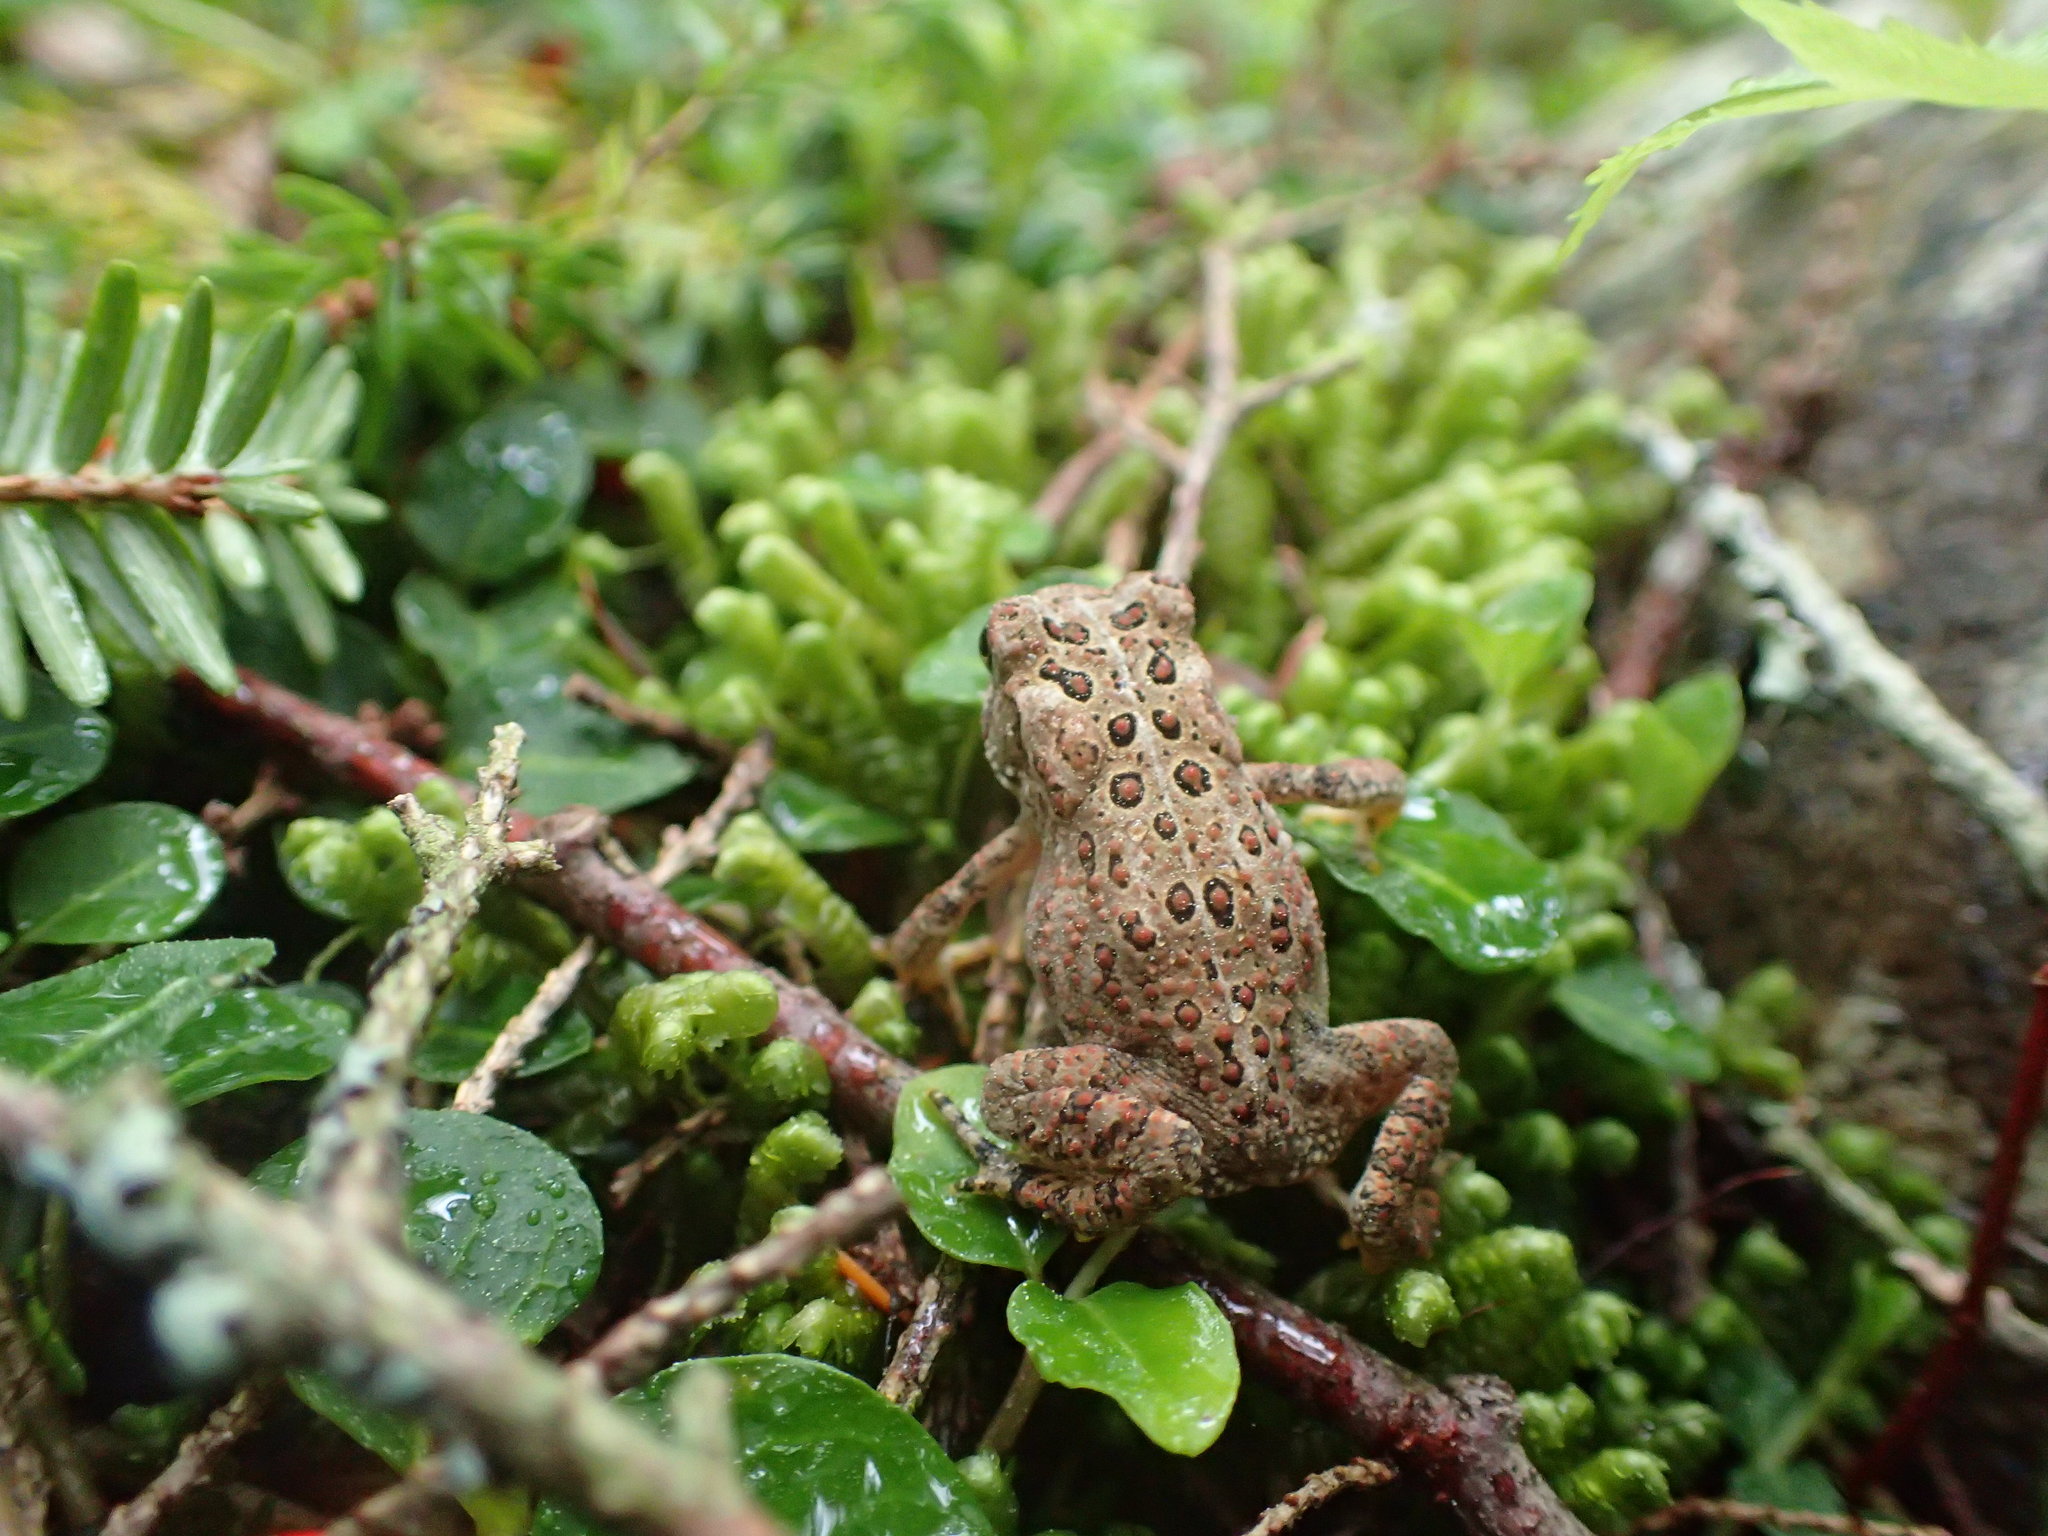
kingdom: Animalia
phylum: Chordata
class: Amphibia
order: Anura
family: Bufonidae
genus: Anaxyrus
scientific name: Anaxyrus americanus
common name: American toad
